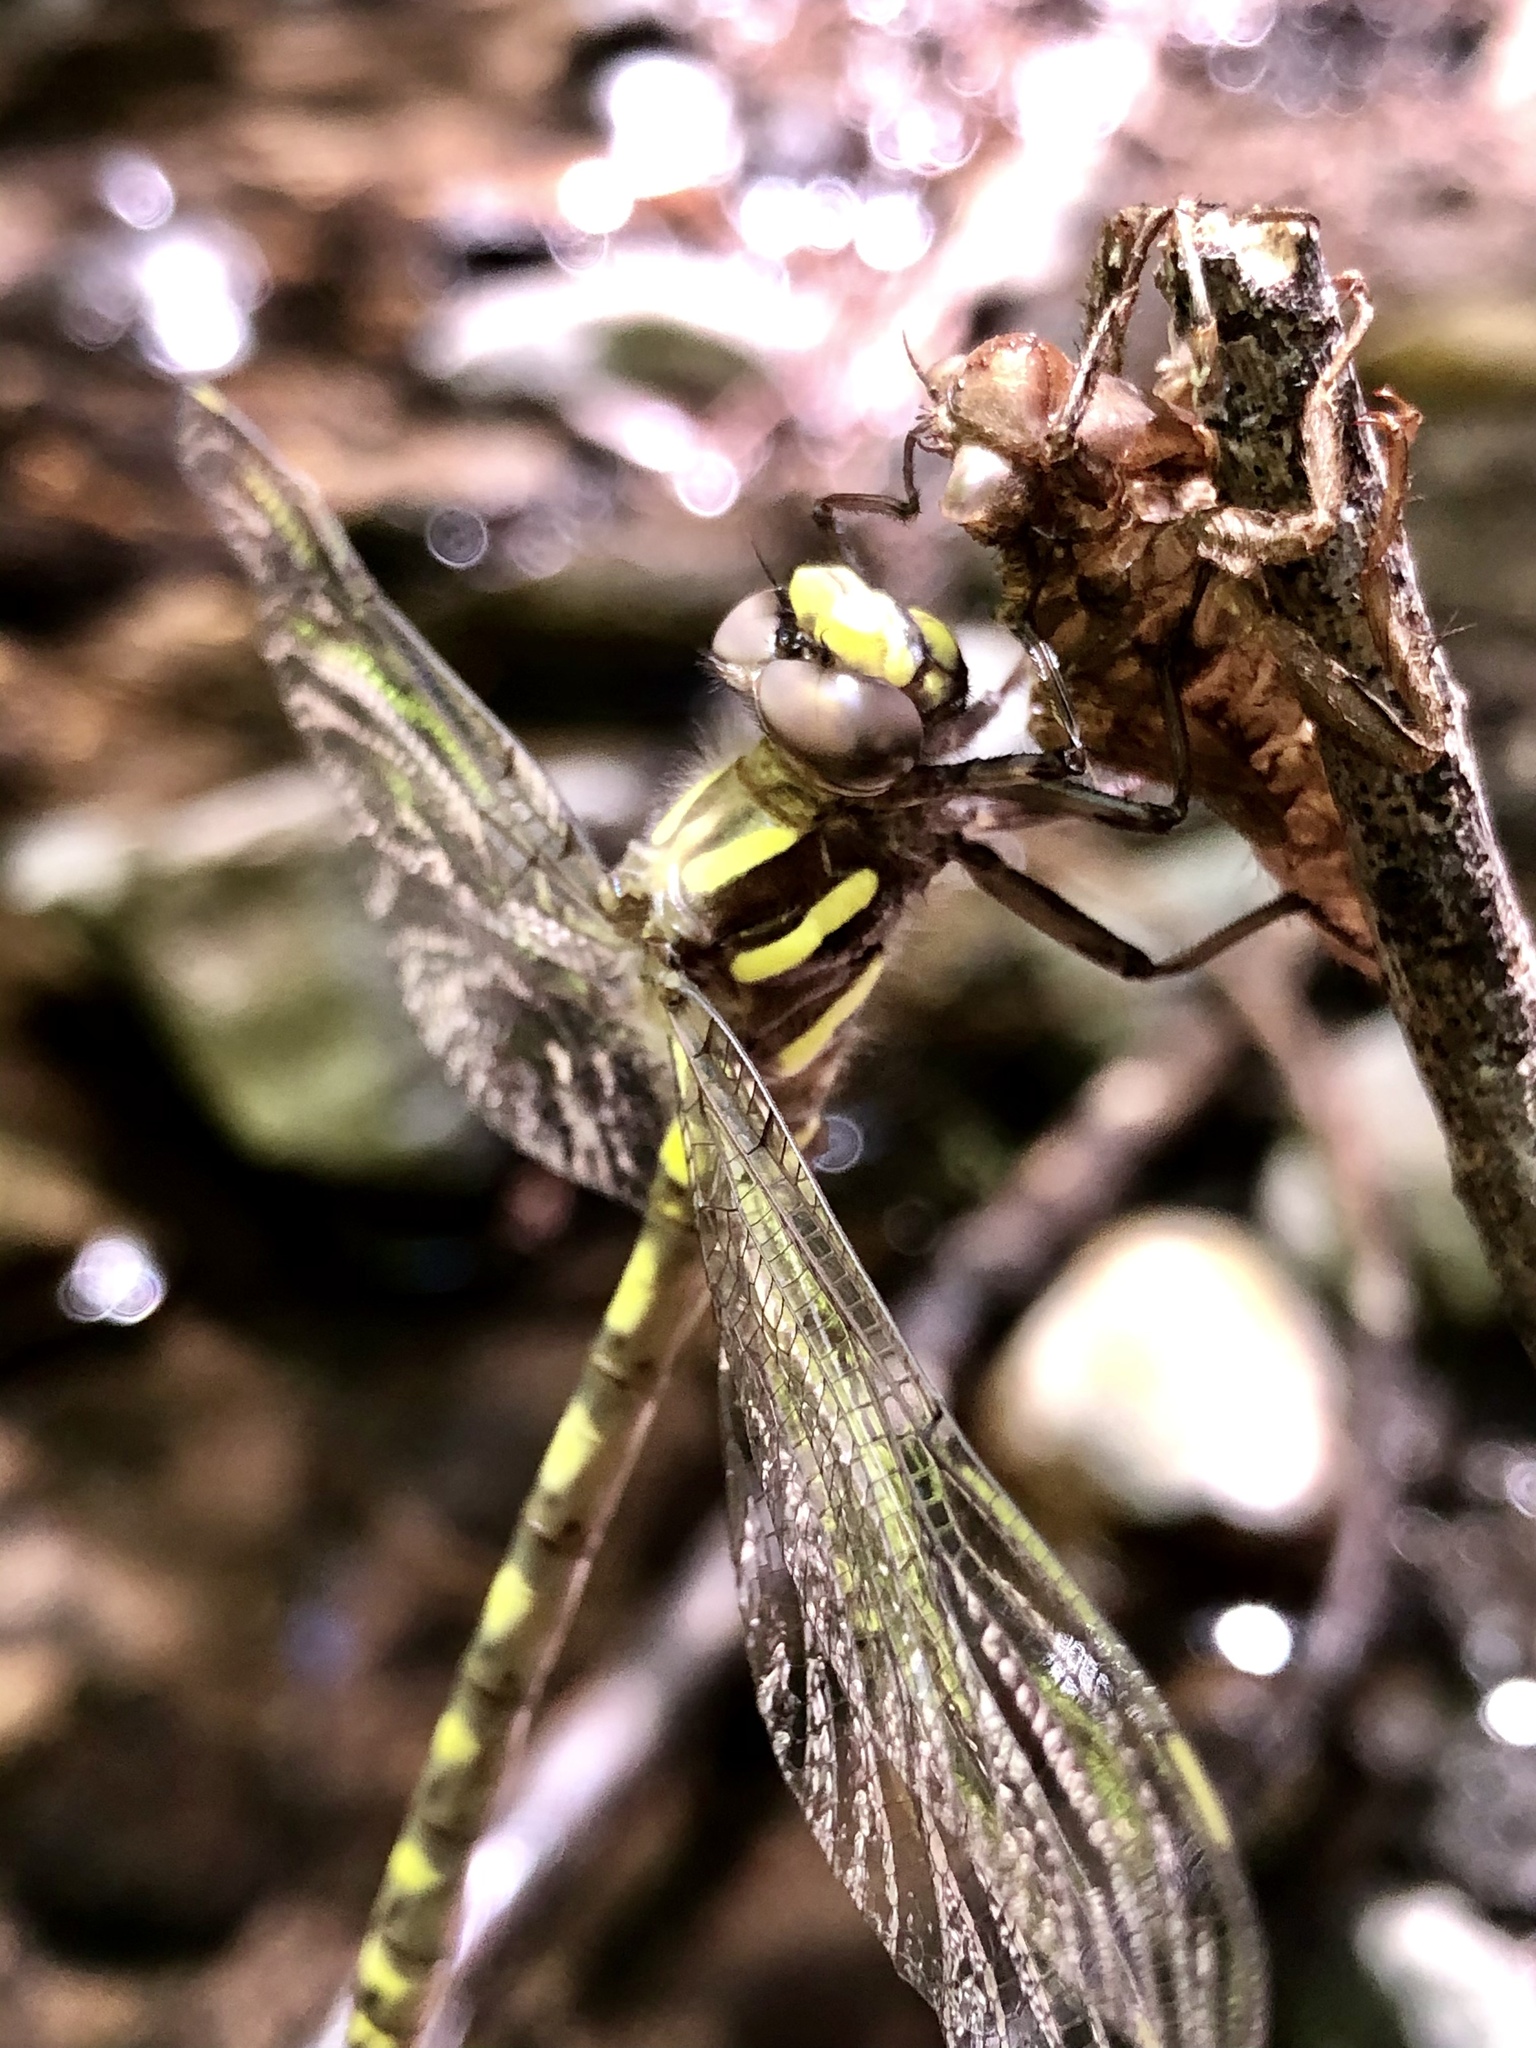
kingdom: Animalia
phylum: Arthropoda
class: Insecta
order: Odonata
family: Cordulegastridae
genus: Cordulegaster
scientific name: Cordulegaster dorsalis
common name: Pacific spiketail
